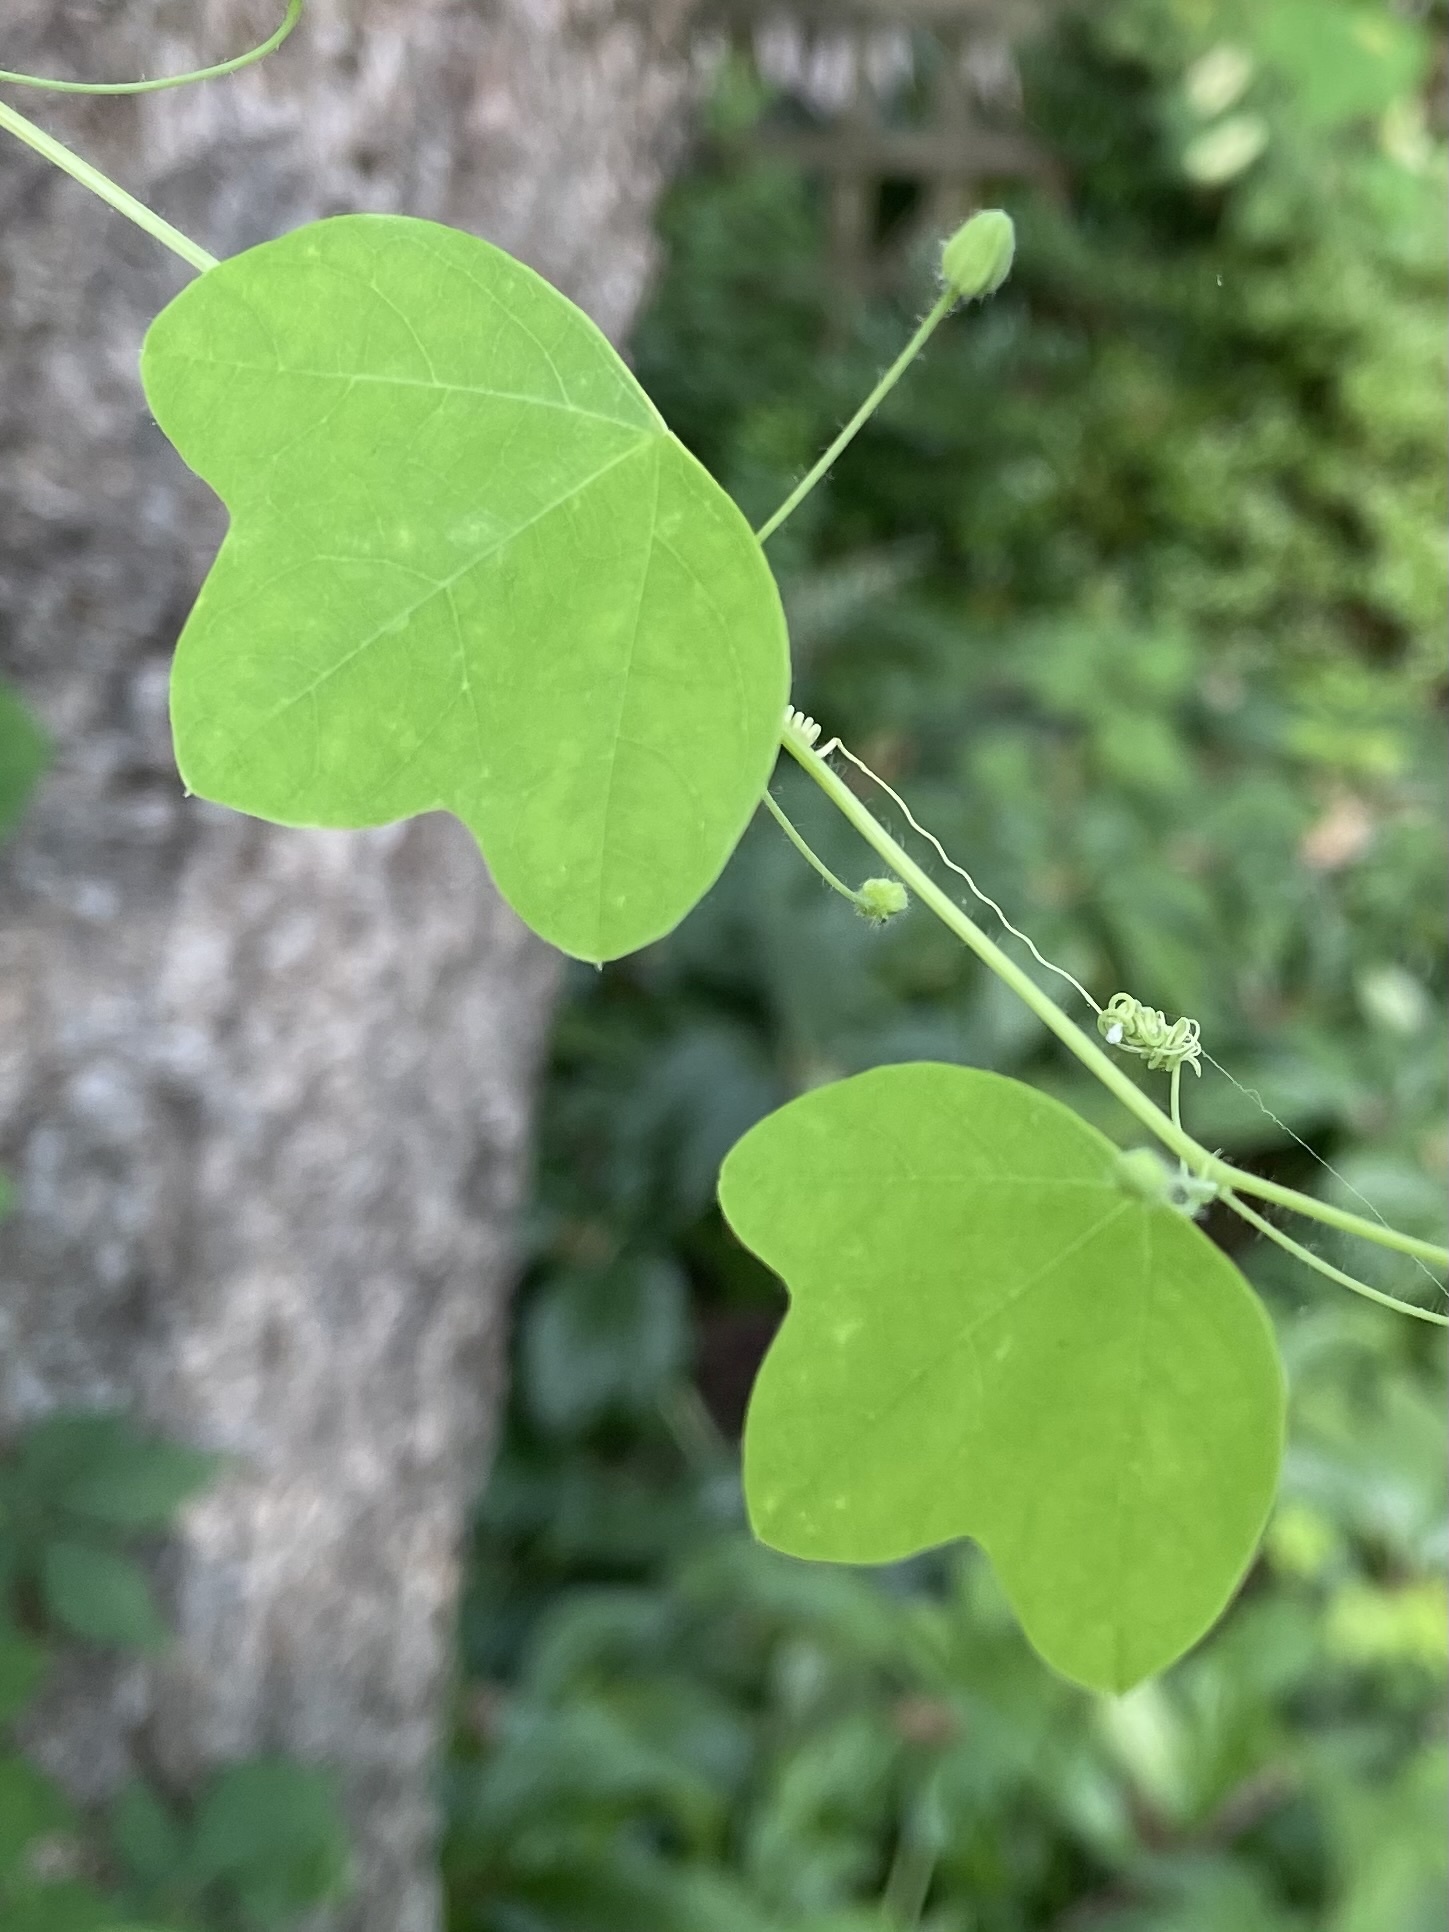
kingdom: Plantae
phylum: Tracheophyta
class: Magnoliopsida
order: Malpighiales
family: Passifloraceae
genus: Passiflora
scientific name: Passiflora lutea
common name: Yellow passionflower
